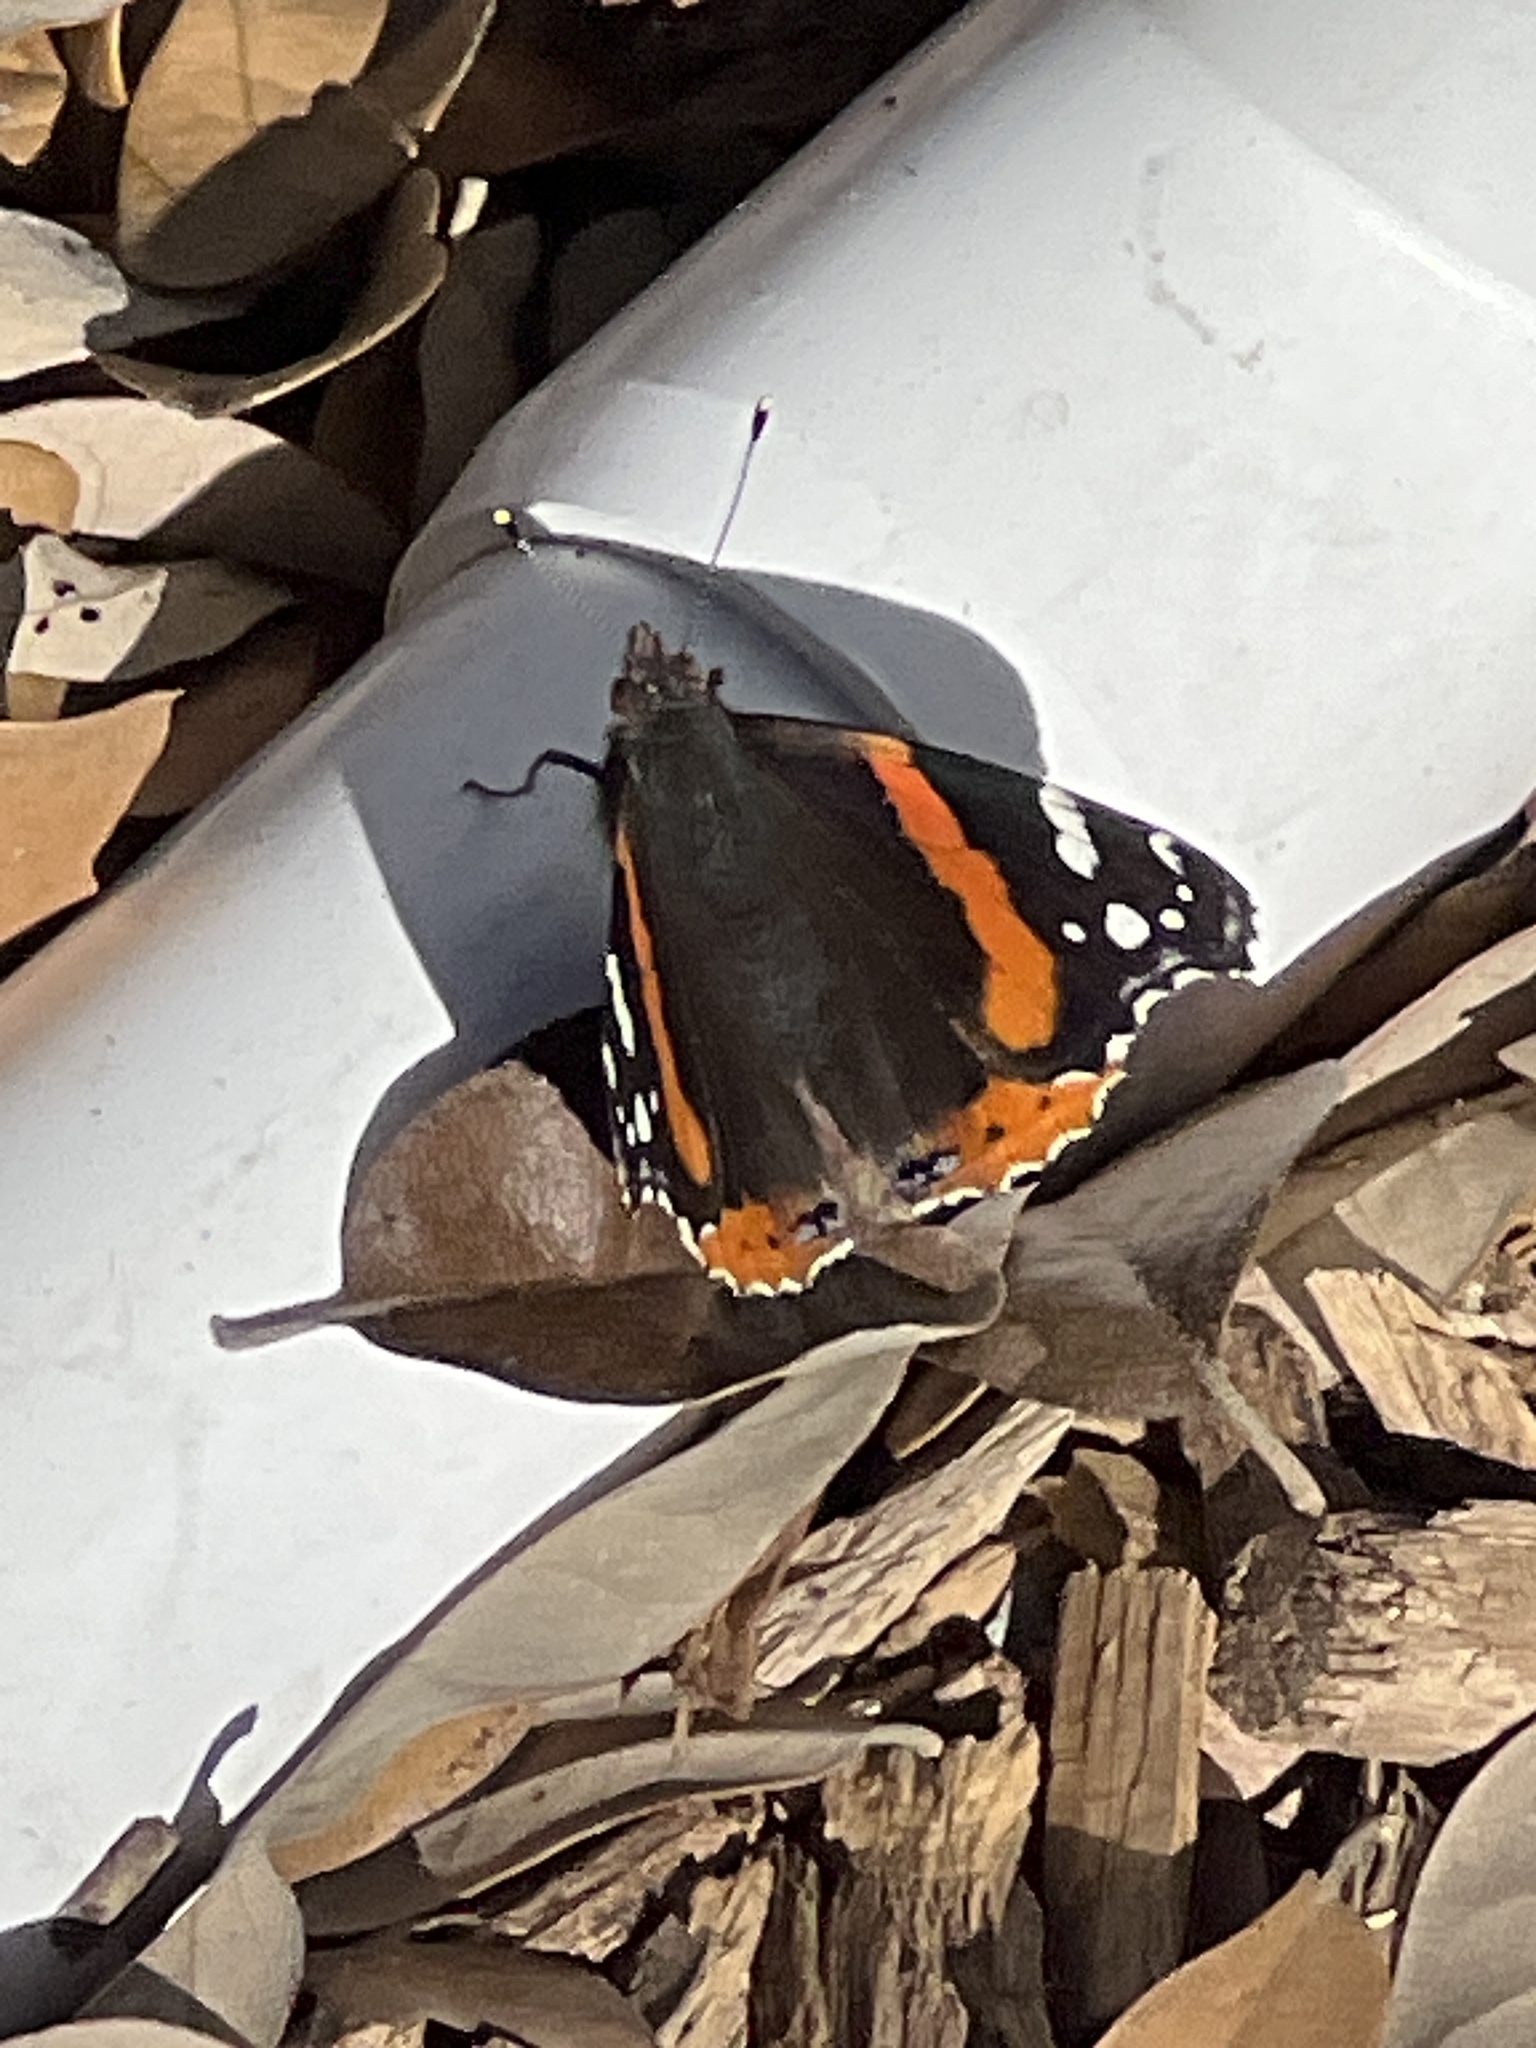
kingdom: Animalia
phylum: Arthropoda
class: Insecta
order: Lepidoptera
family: Nymphalidae
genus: Vanessa
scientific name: Vanessa atalanta
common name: Red admiral
